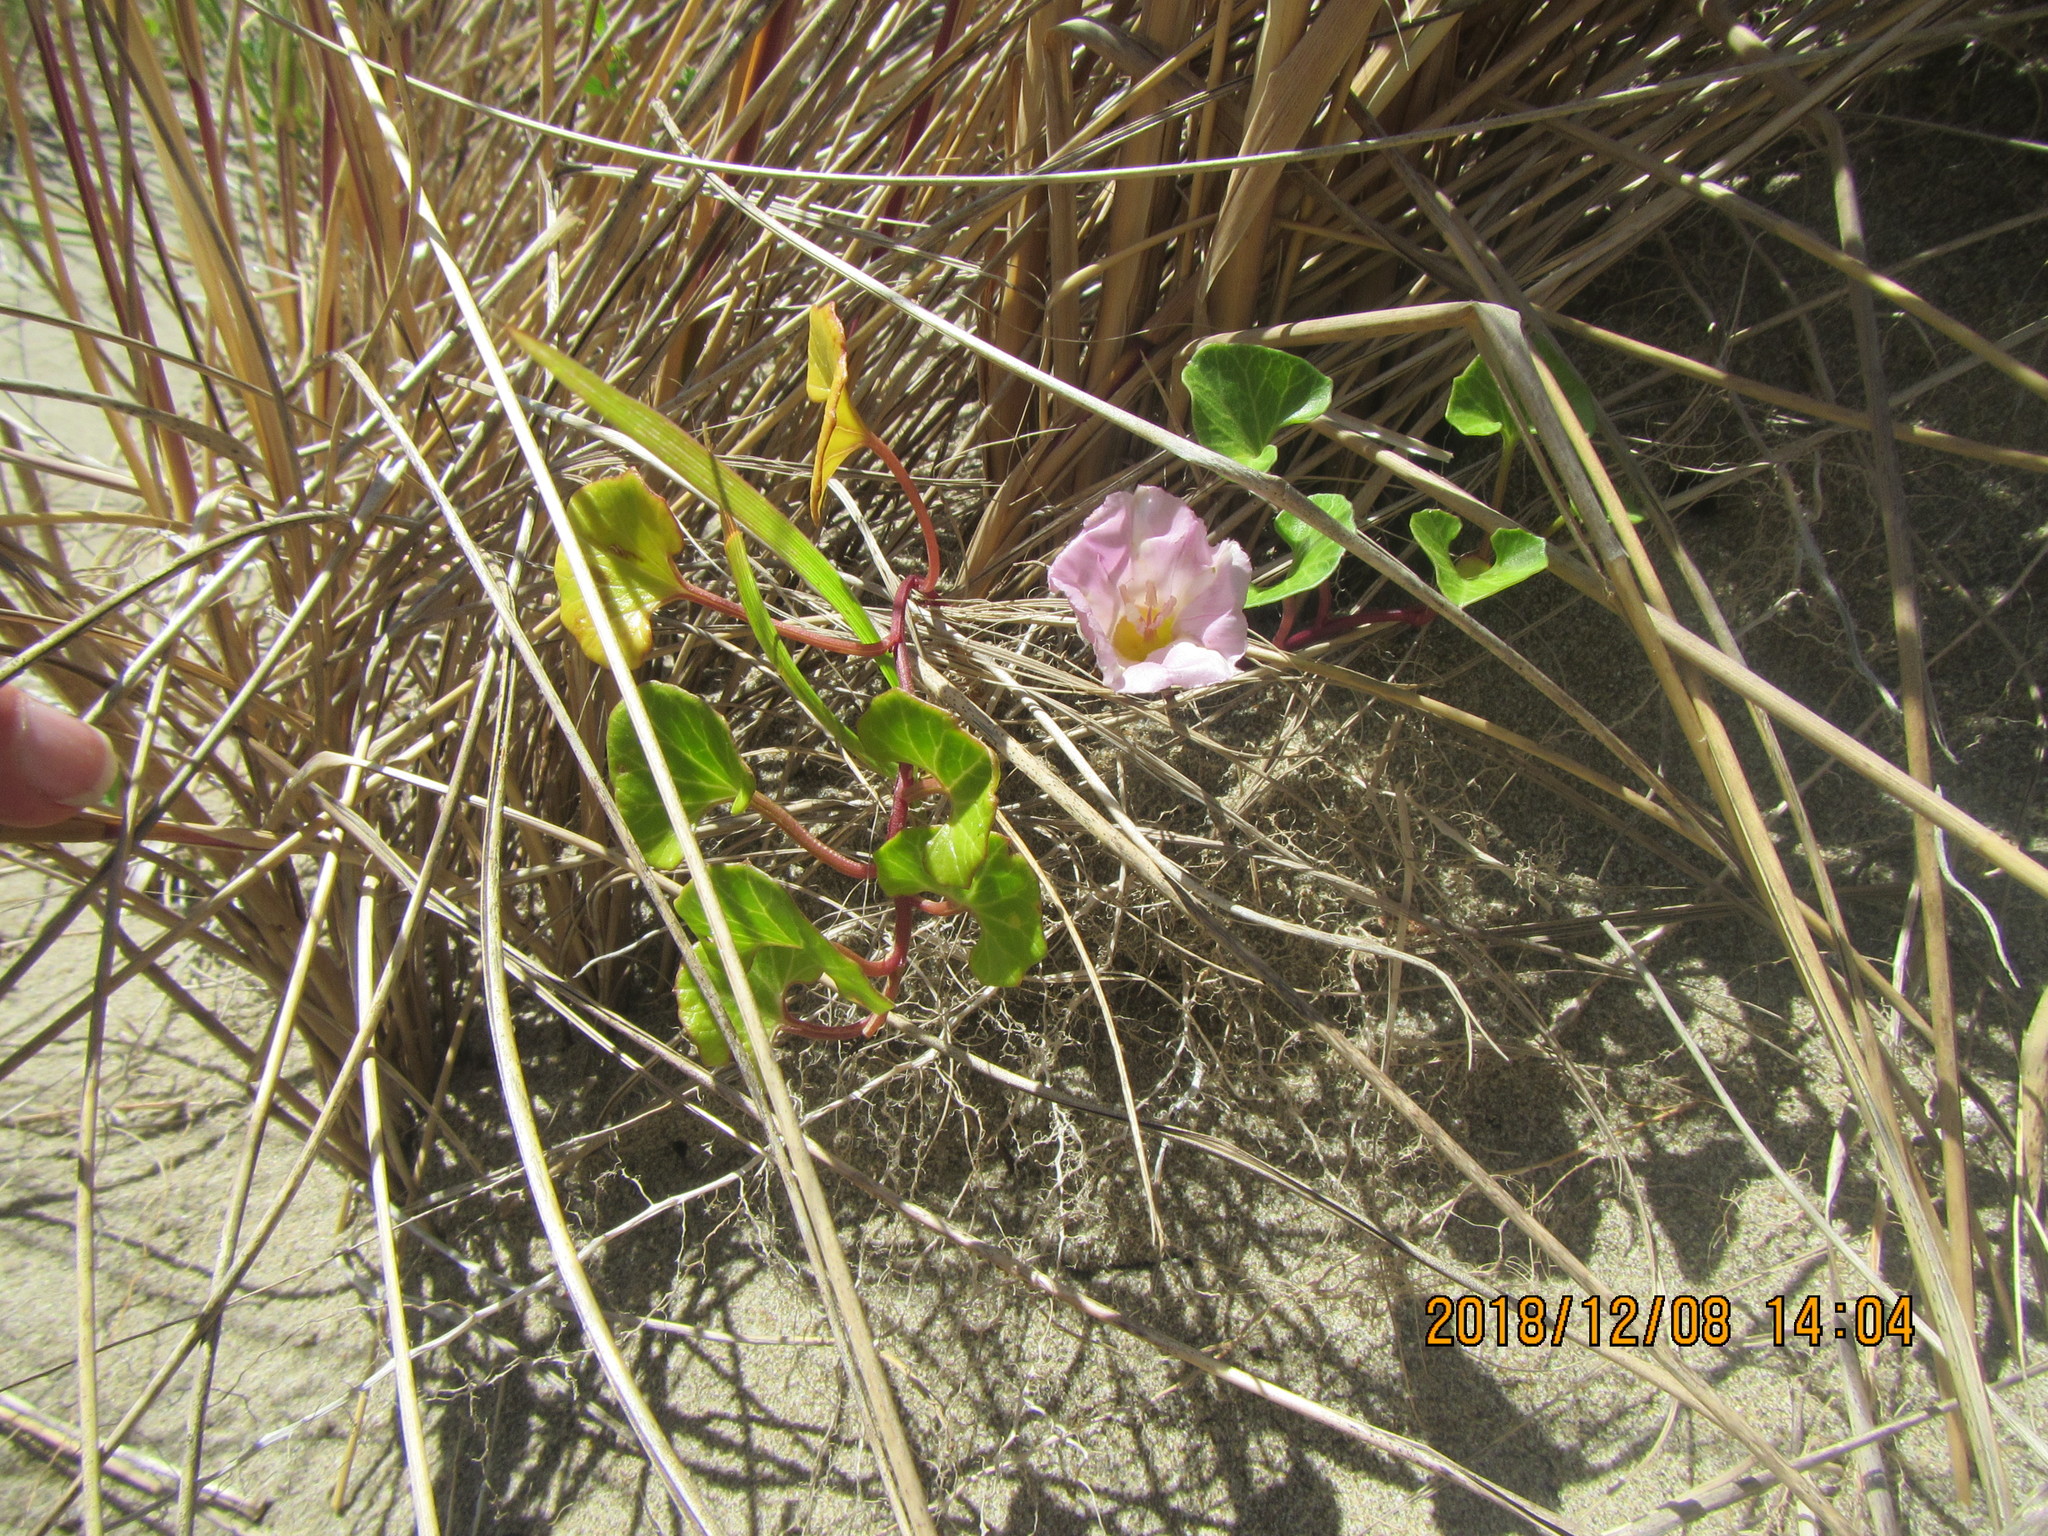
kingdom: Plantae
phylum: Tracheophyta
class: Magnoliopsida
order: Solanales
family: Convolvulaceae
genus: Calystegia
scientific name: Calystegia soldanella
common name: Sea bindweed
